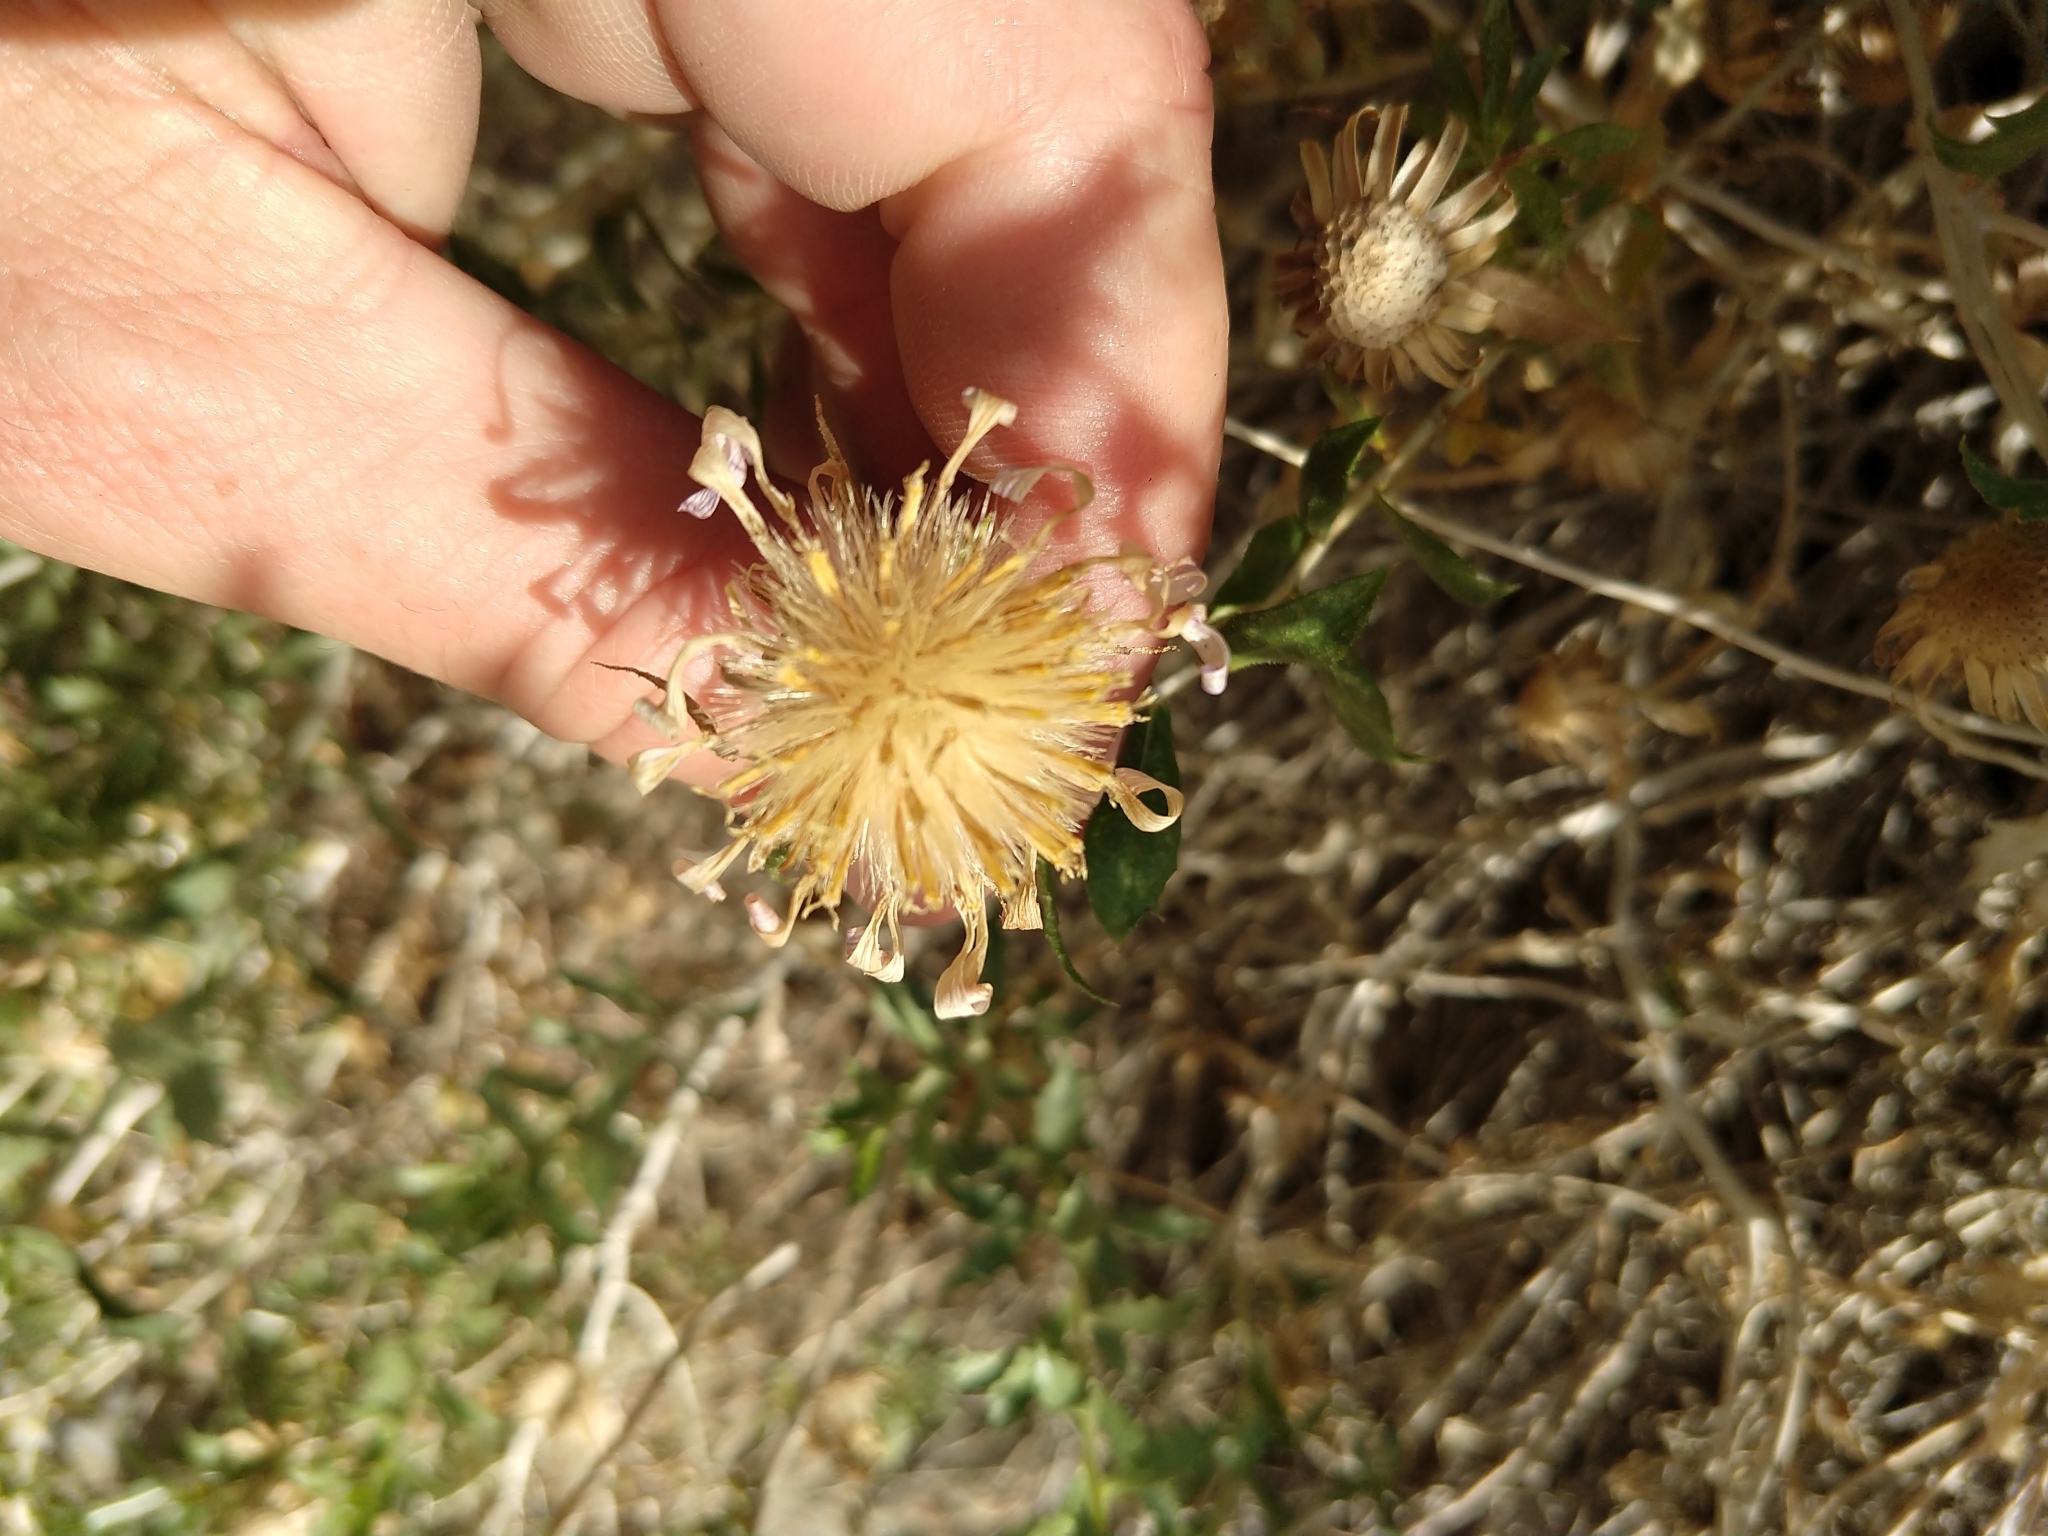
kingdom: Plantae
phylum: Tracheophyta
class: Magnoliopsida
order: Asterales
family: Asteraceae
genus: Xylorhiza
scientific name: Xylorhiza cognata
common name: Mecca woody-aster
